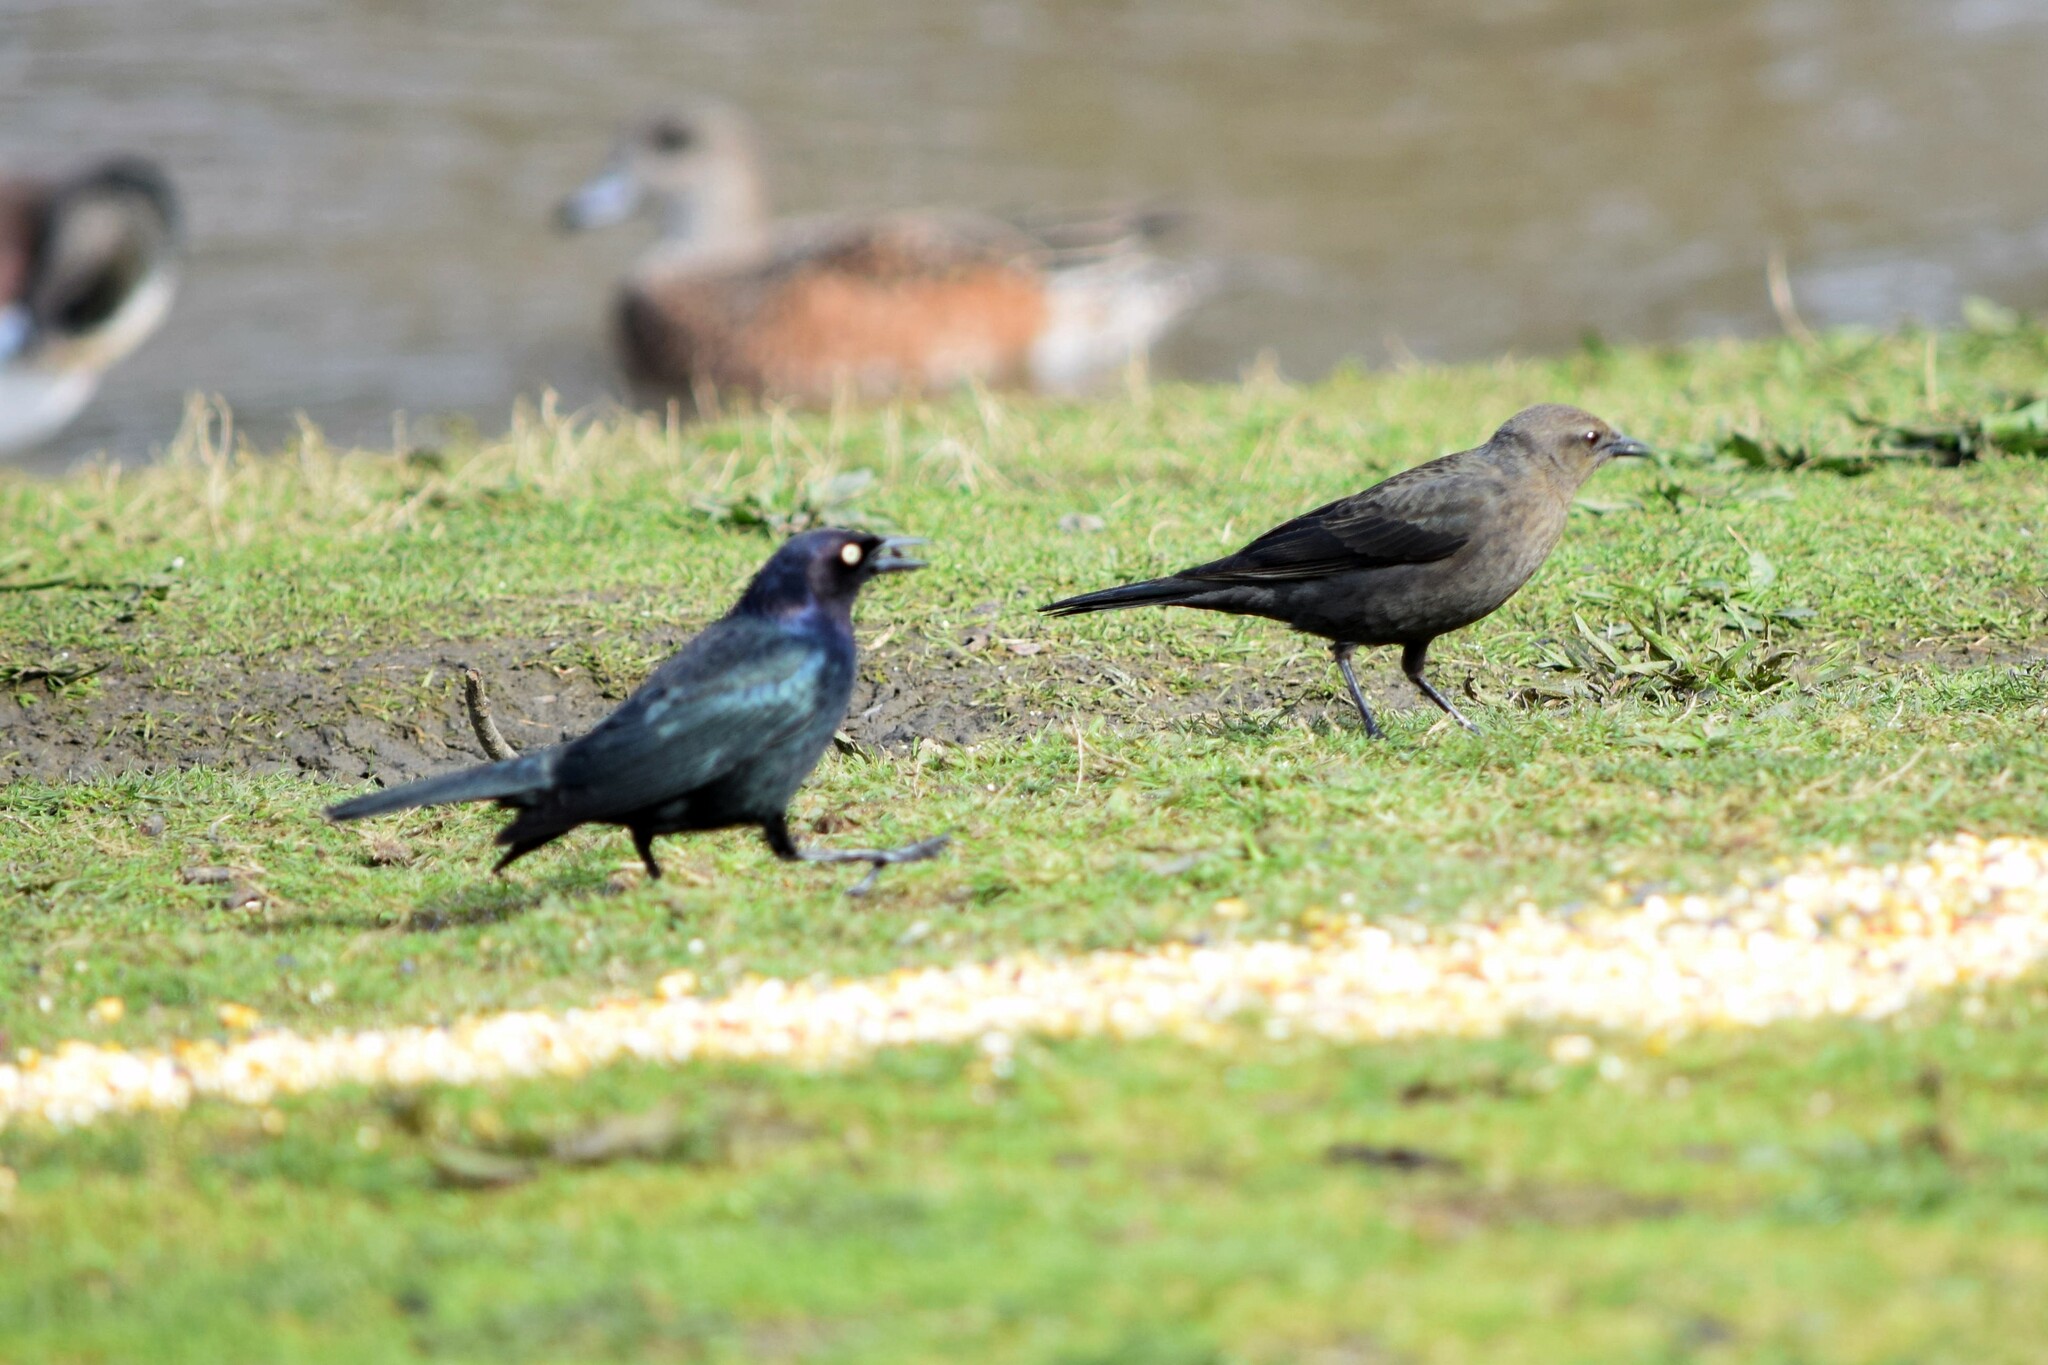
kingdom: Animalia
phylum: Chordata
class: Aves
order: Passeriformes
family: Icteridae
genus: Euphagus
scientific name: Euphagus cyanocephalus
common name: Brewer's blackbird
